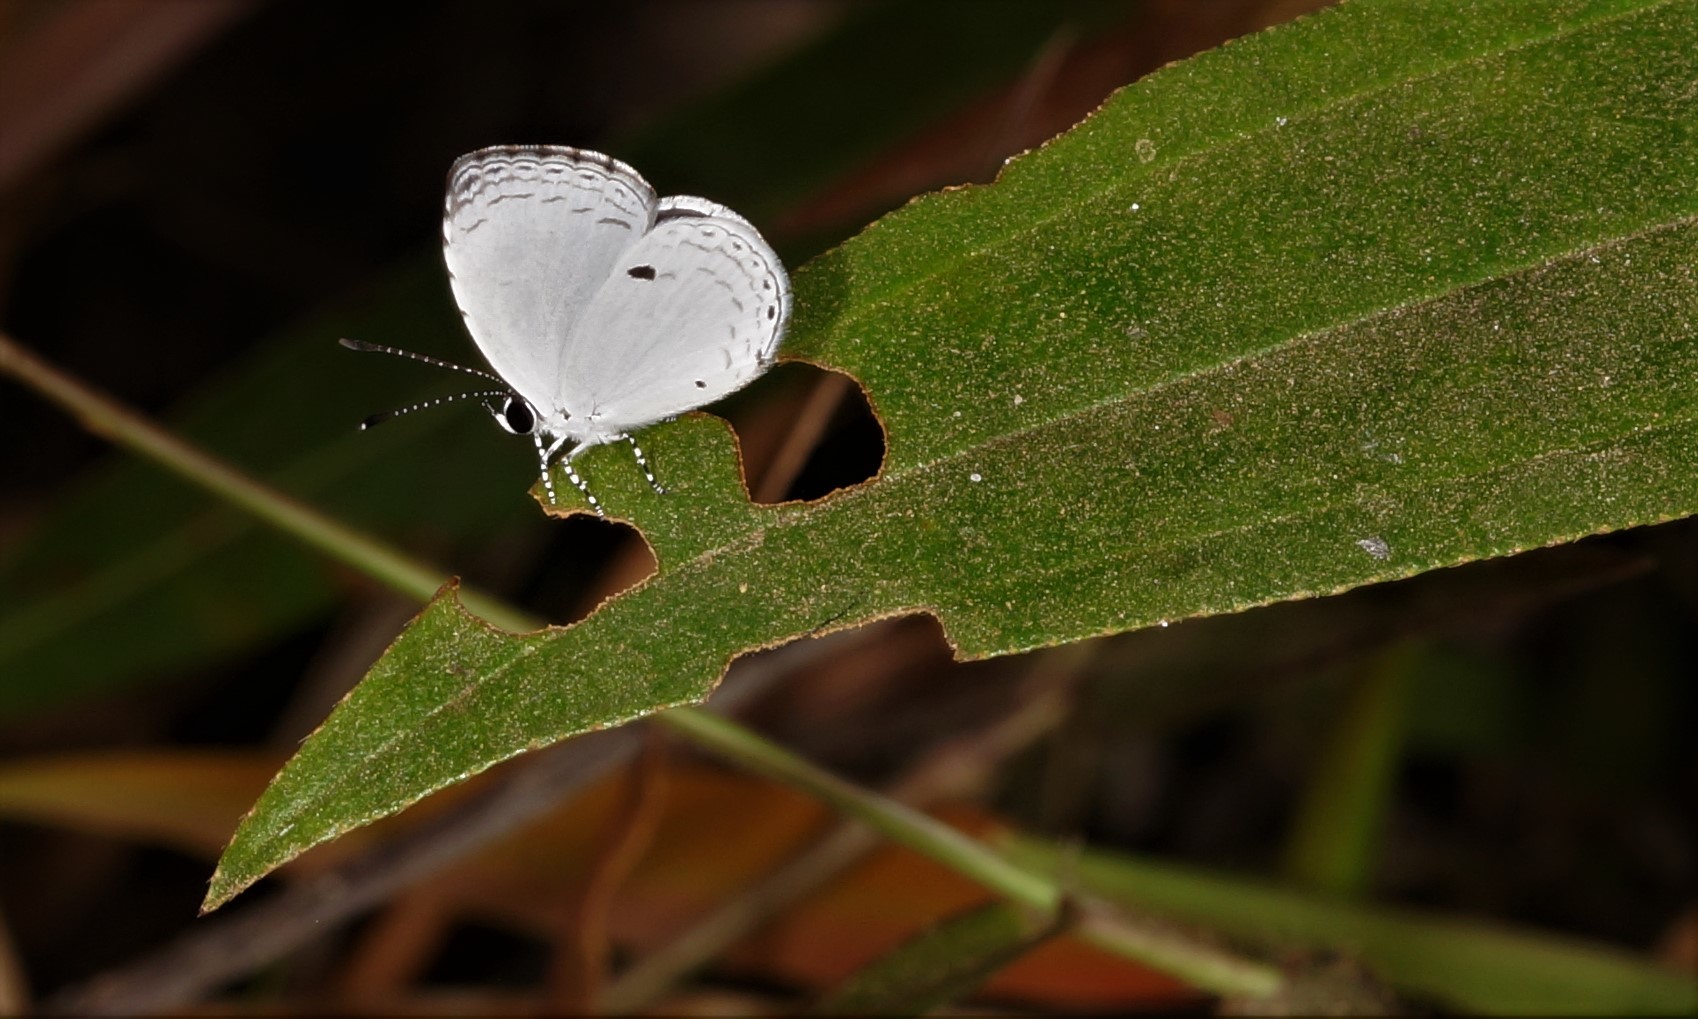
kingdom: Animalia
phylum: Arthropoda
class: Insecta
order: Lepidoptera
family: Lycaenidae
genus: Neopithecops
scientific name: Neopithecops zalmora
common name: Quaker
